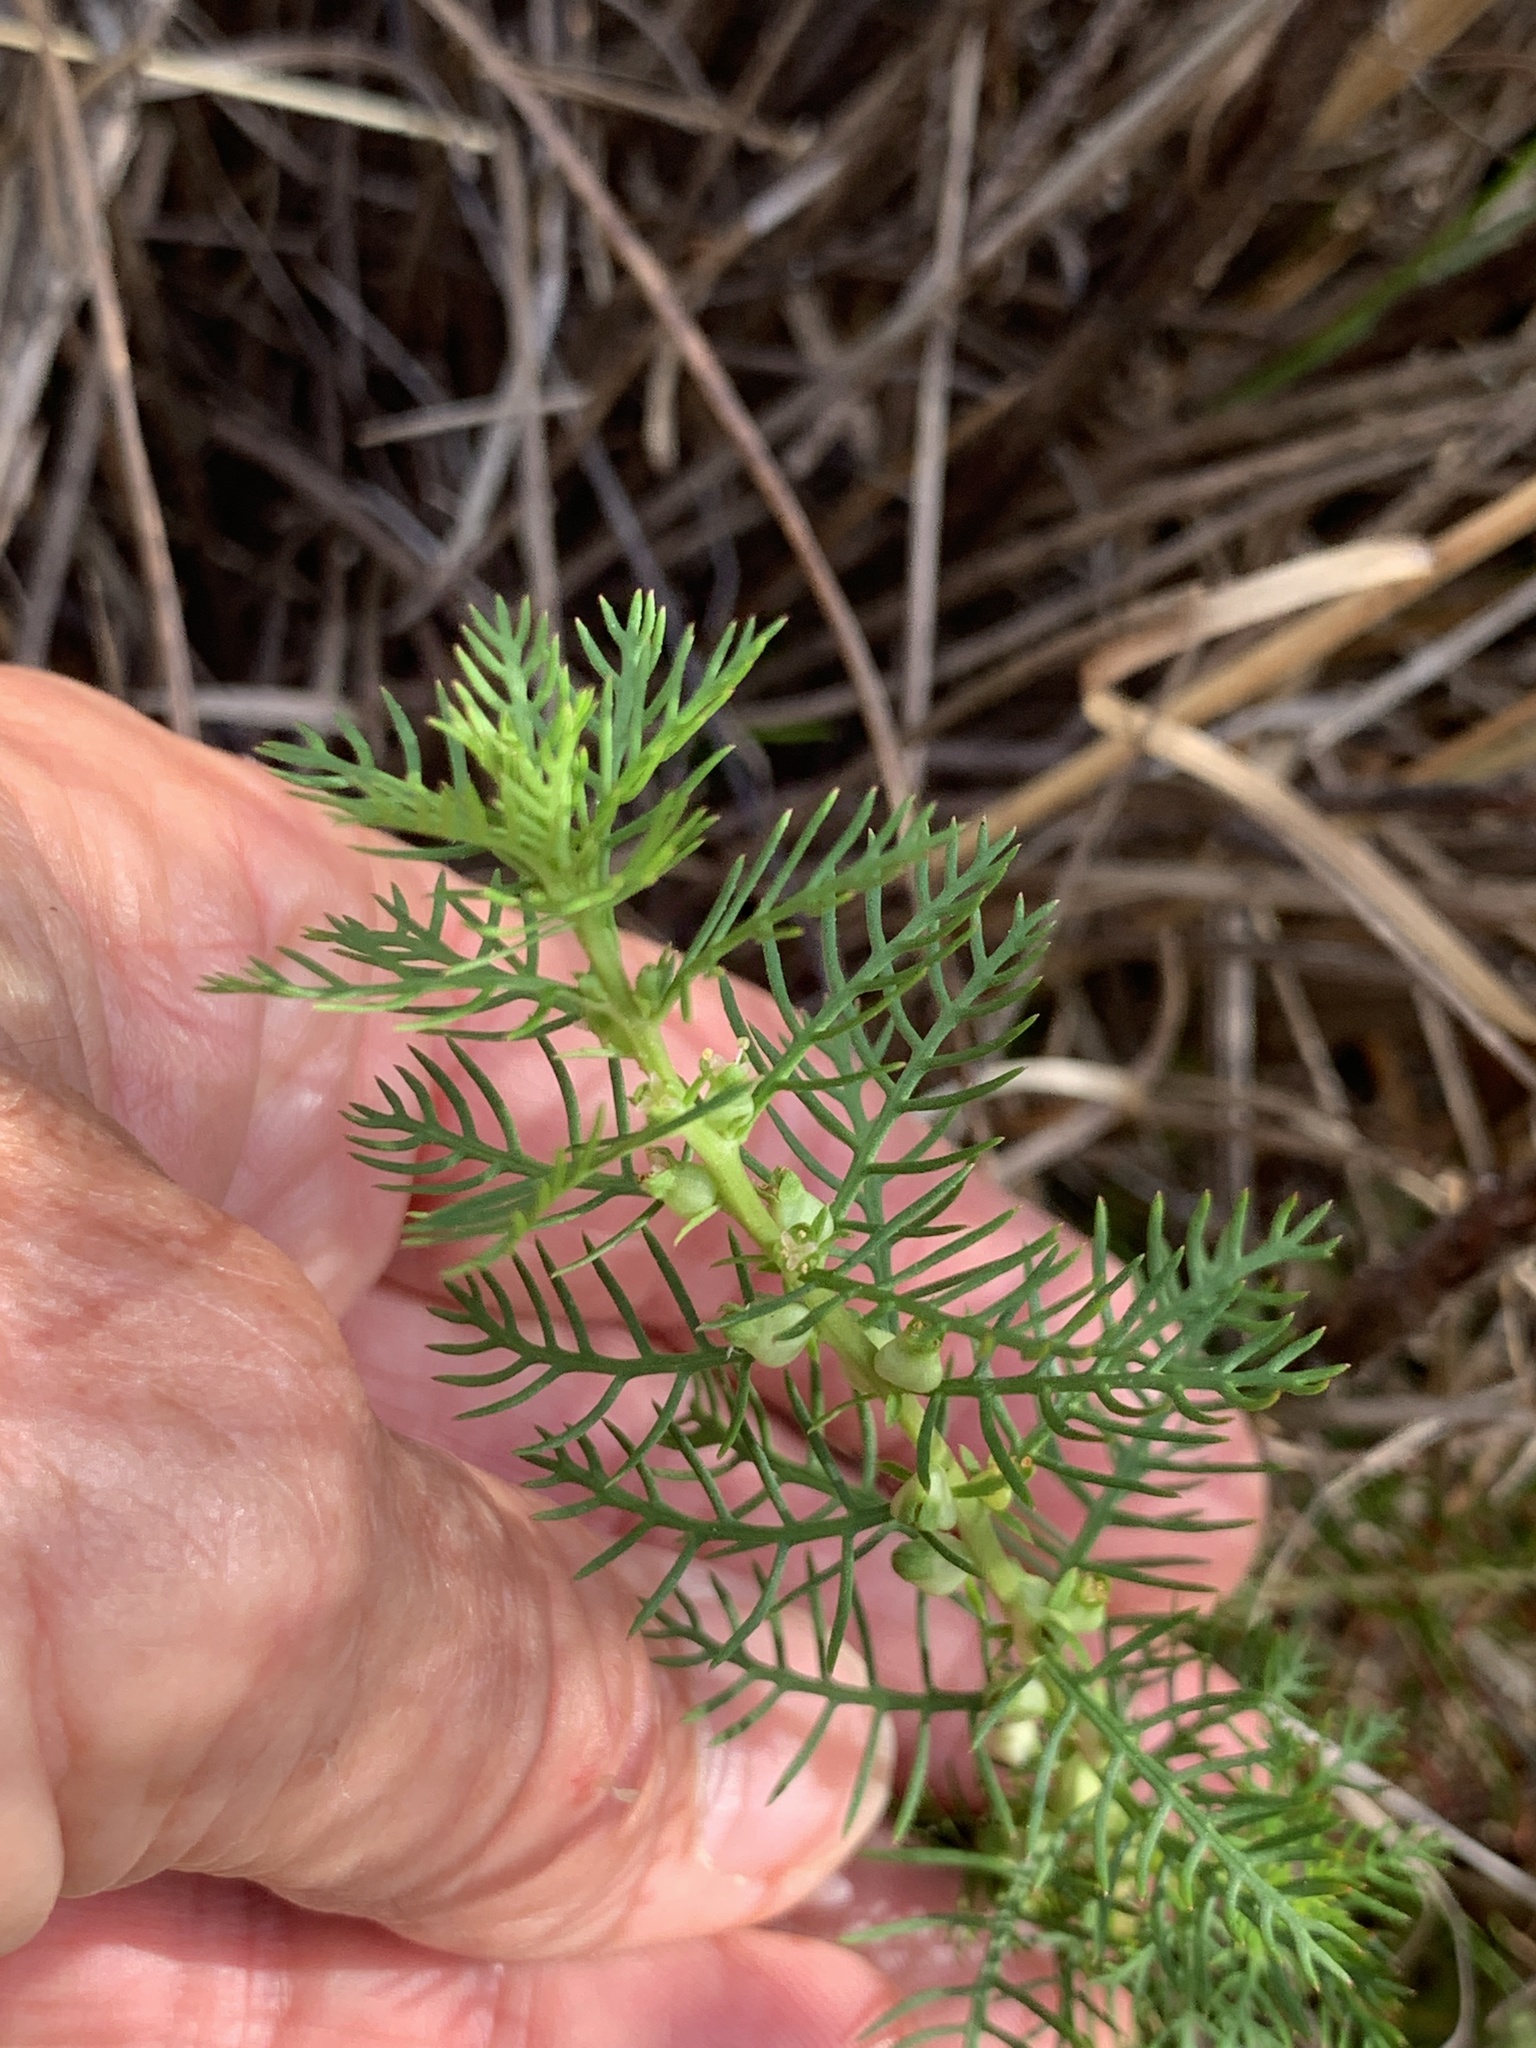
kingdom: Plantae
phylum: Tracheophyta
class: Magnoliopsida
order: Saxifragales
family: Haloragaceae
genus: Proserpinaca
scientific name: Proserpinaca pectinata
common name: Comb-leaved mermaidweed
